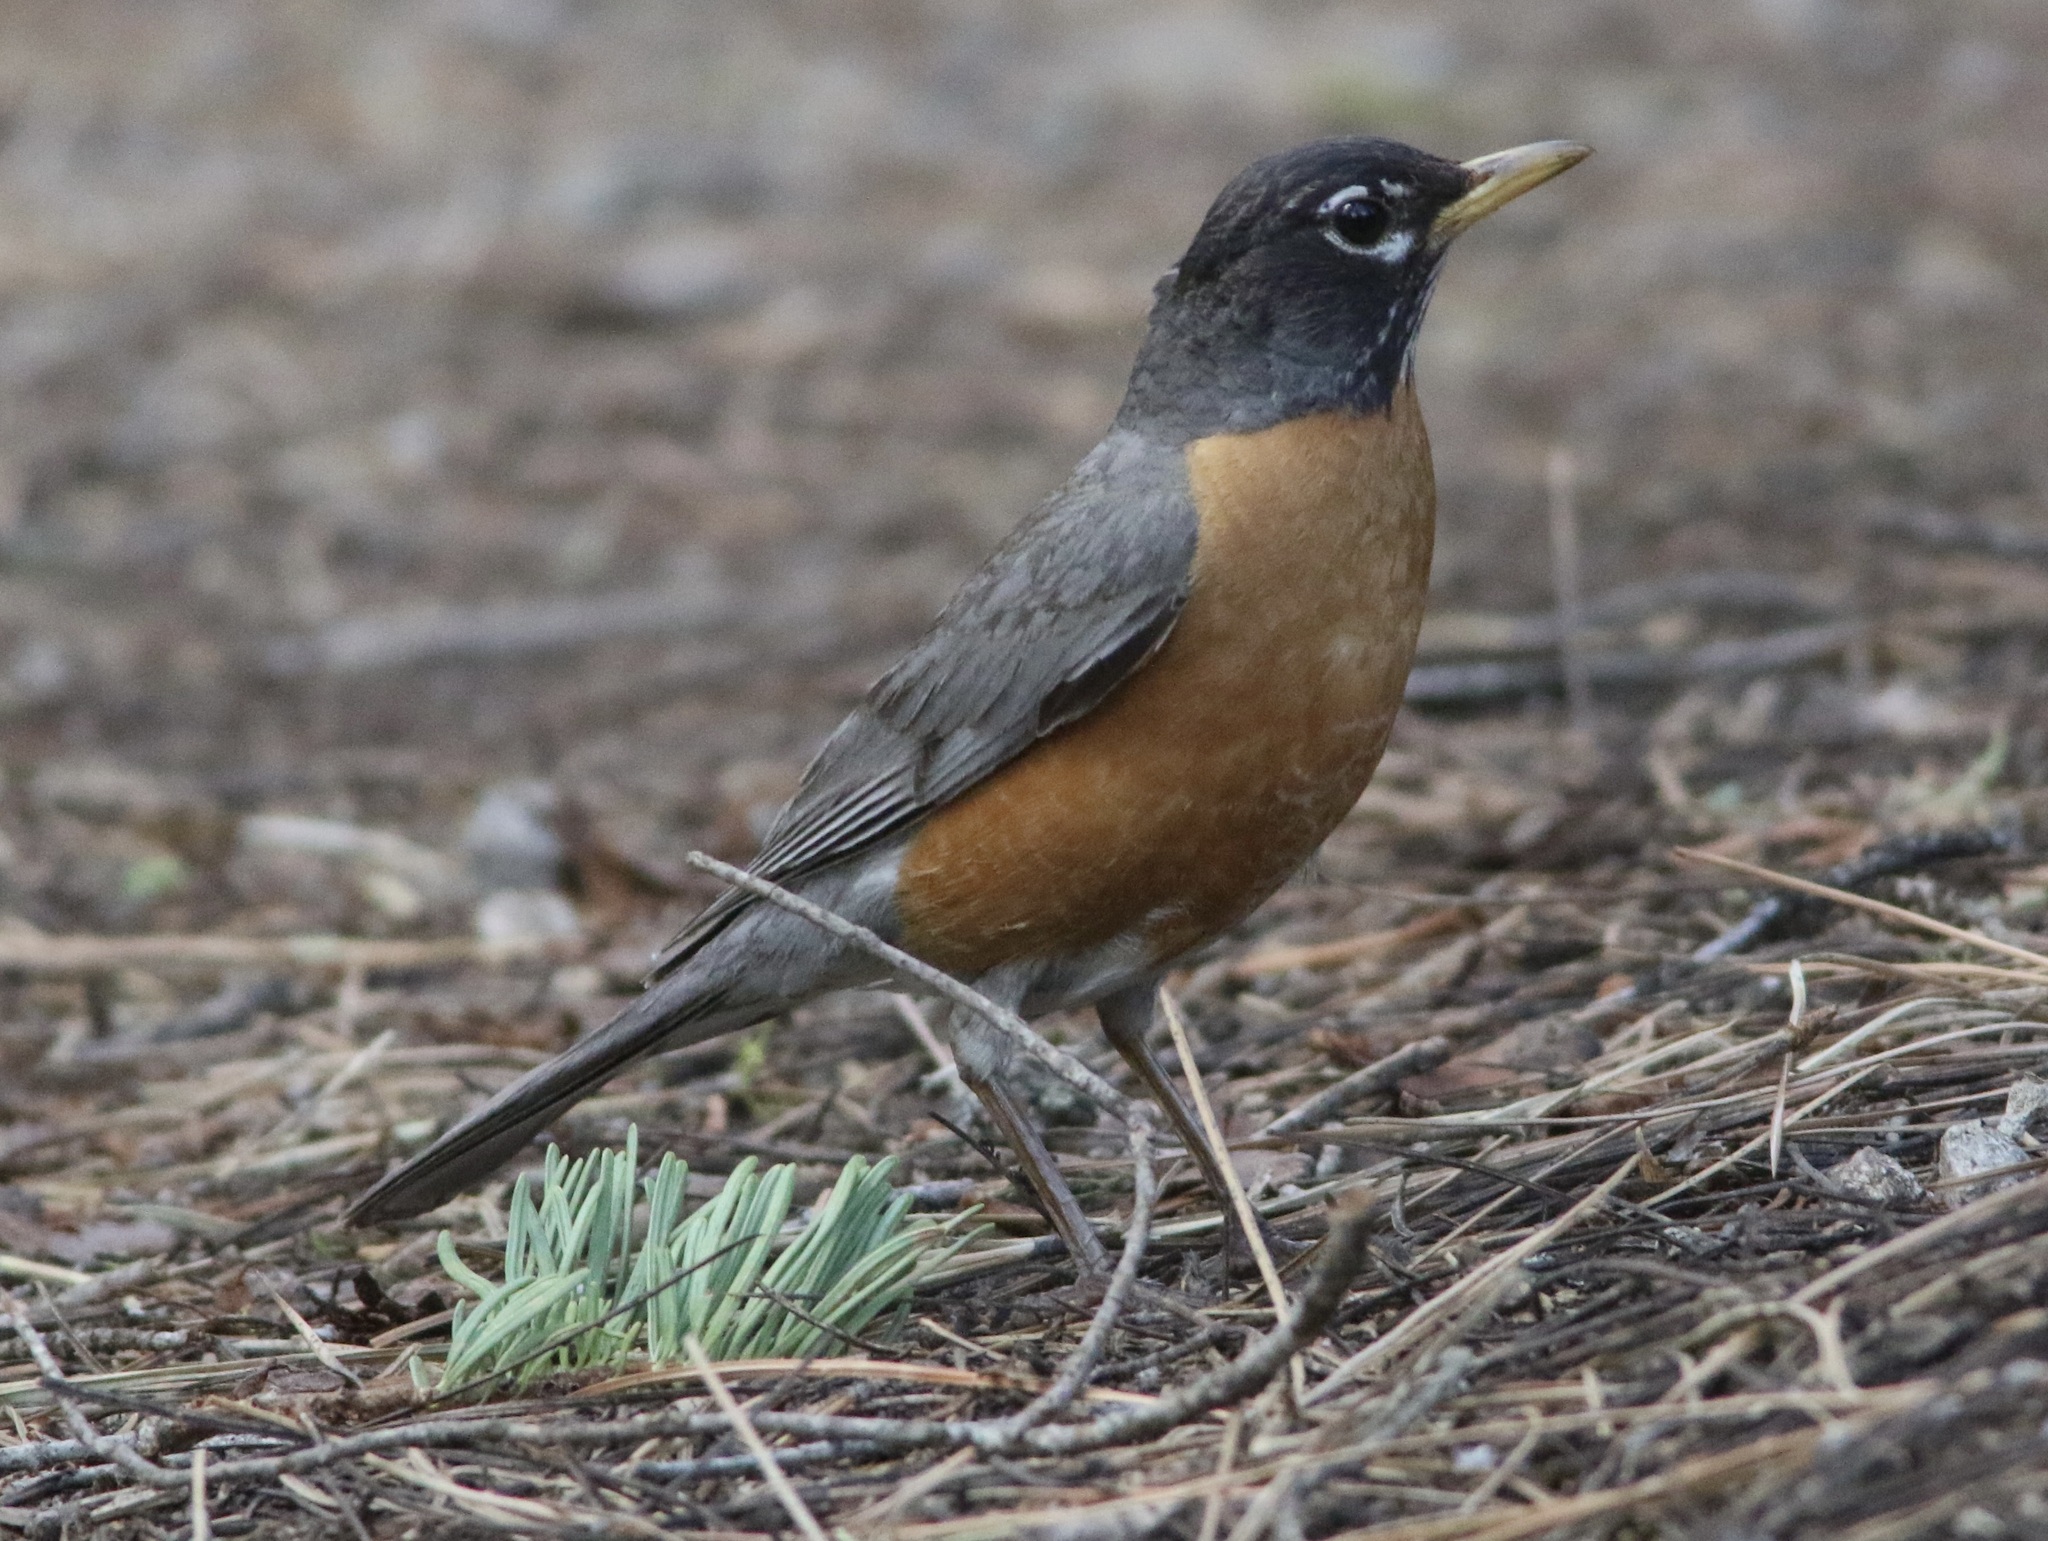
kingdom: Animalia
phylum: Chordata
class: Aves
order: Passeriformes
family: Turdidae
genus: Turdus
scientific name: Turdus migratorius
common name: American robin
